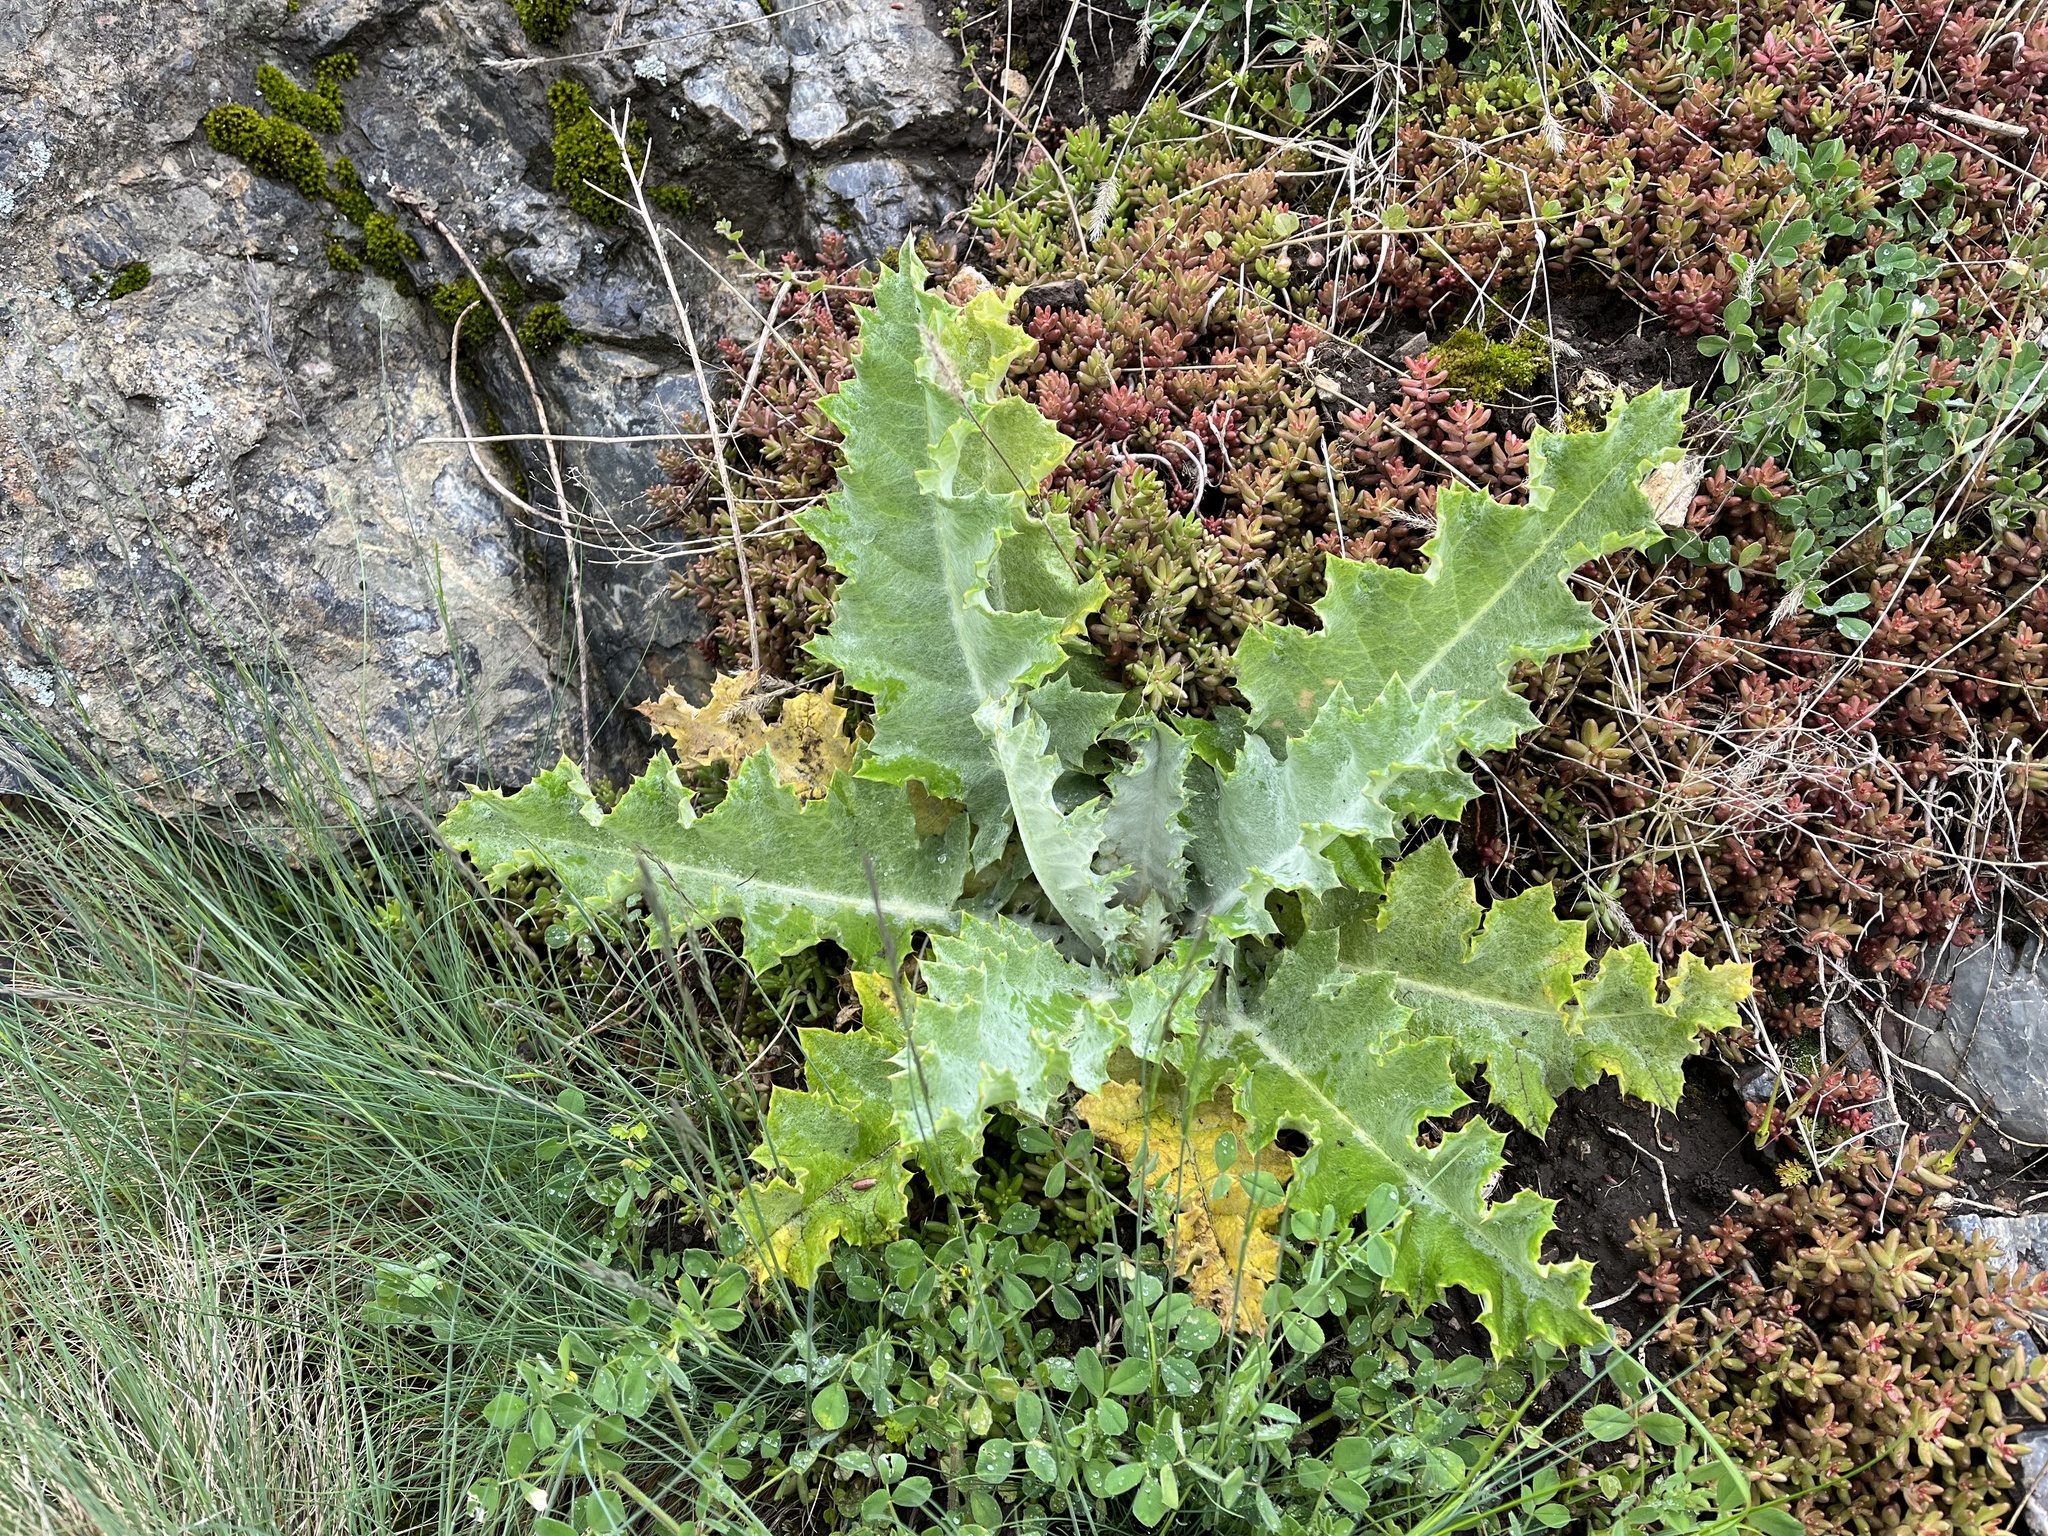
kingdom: Plantae
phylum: Tracheophyta
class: Magnoliopsida
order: Asterales
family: Asteraceae
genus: Onopordum
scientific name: Onopordum acanthium
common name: Scotch thistle
